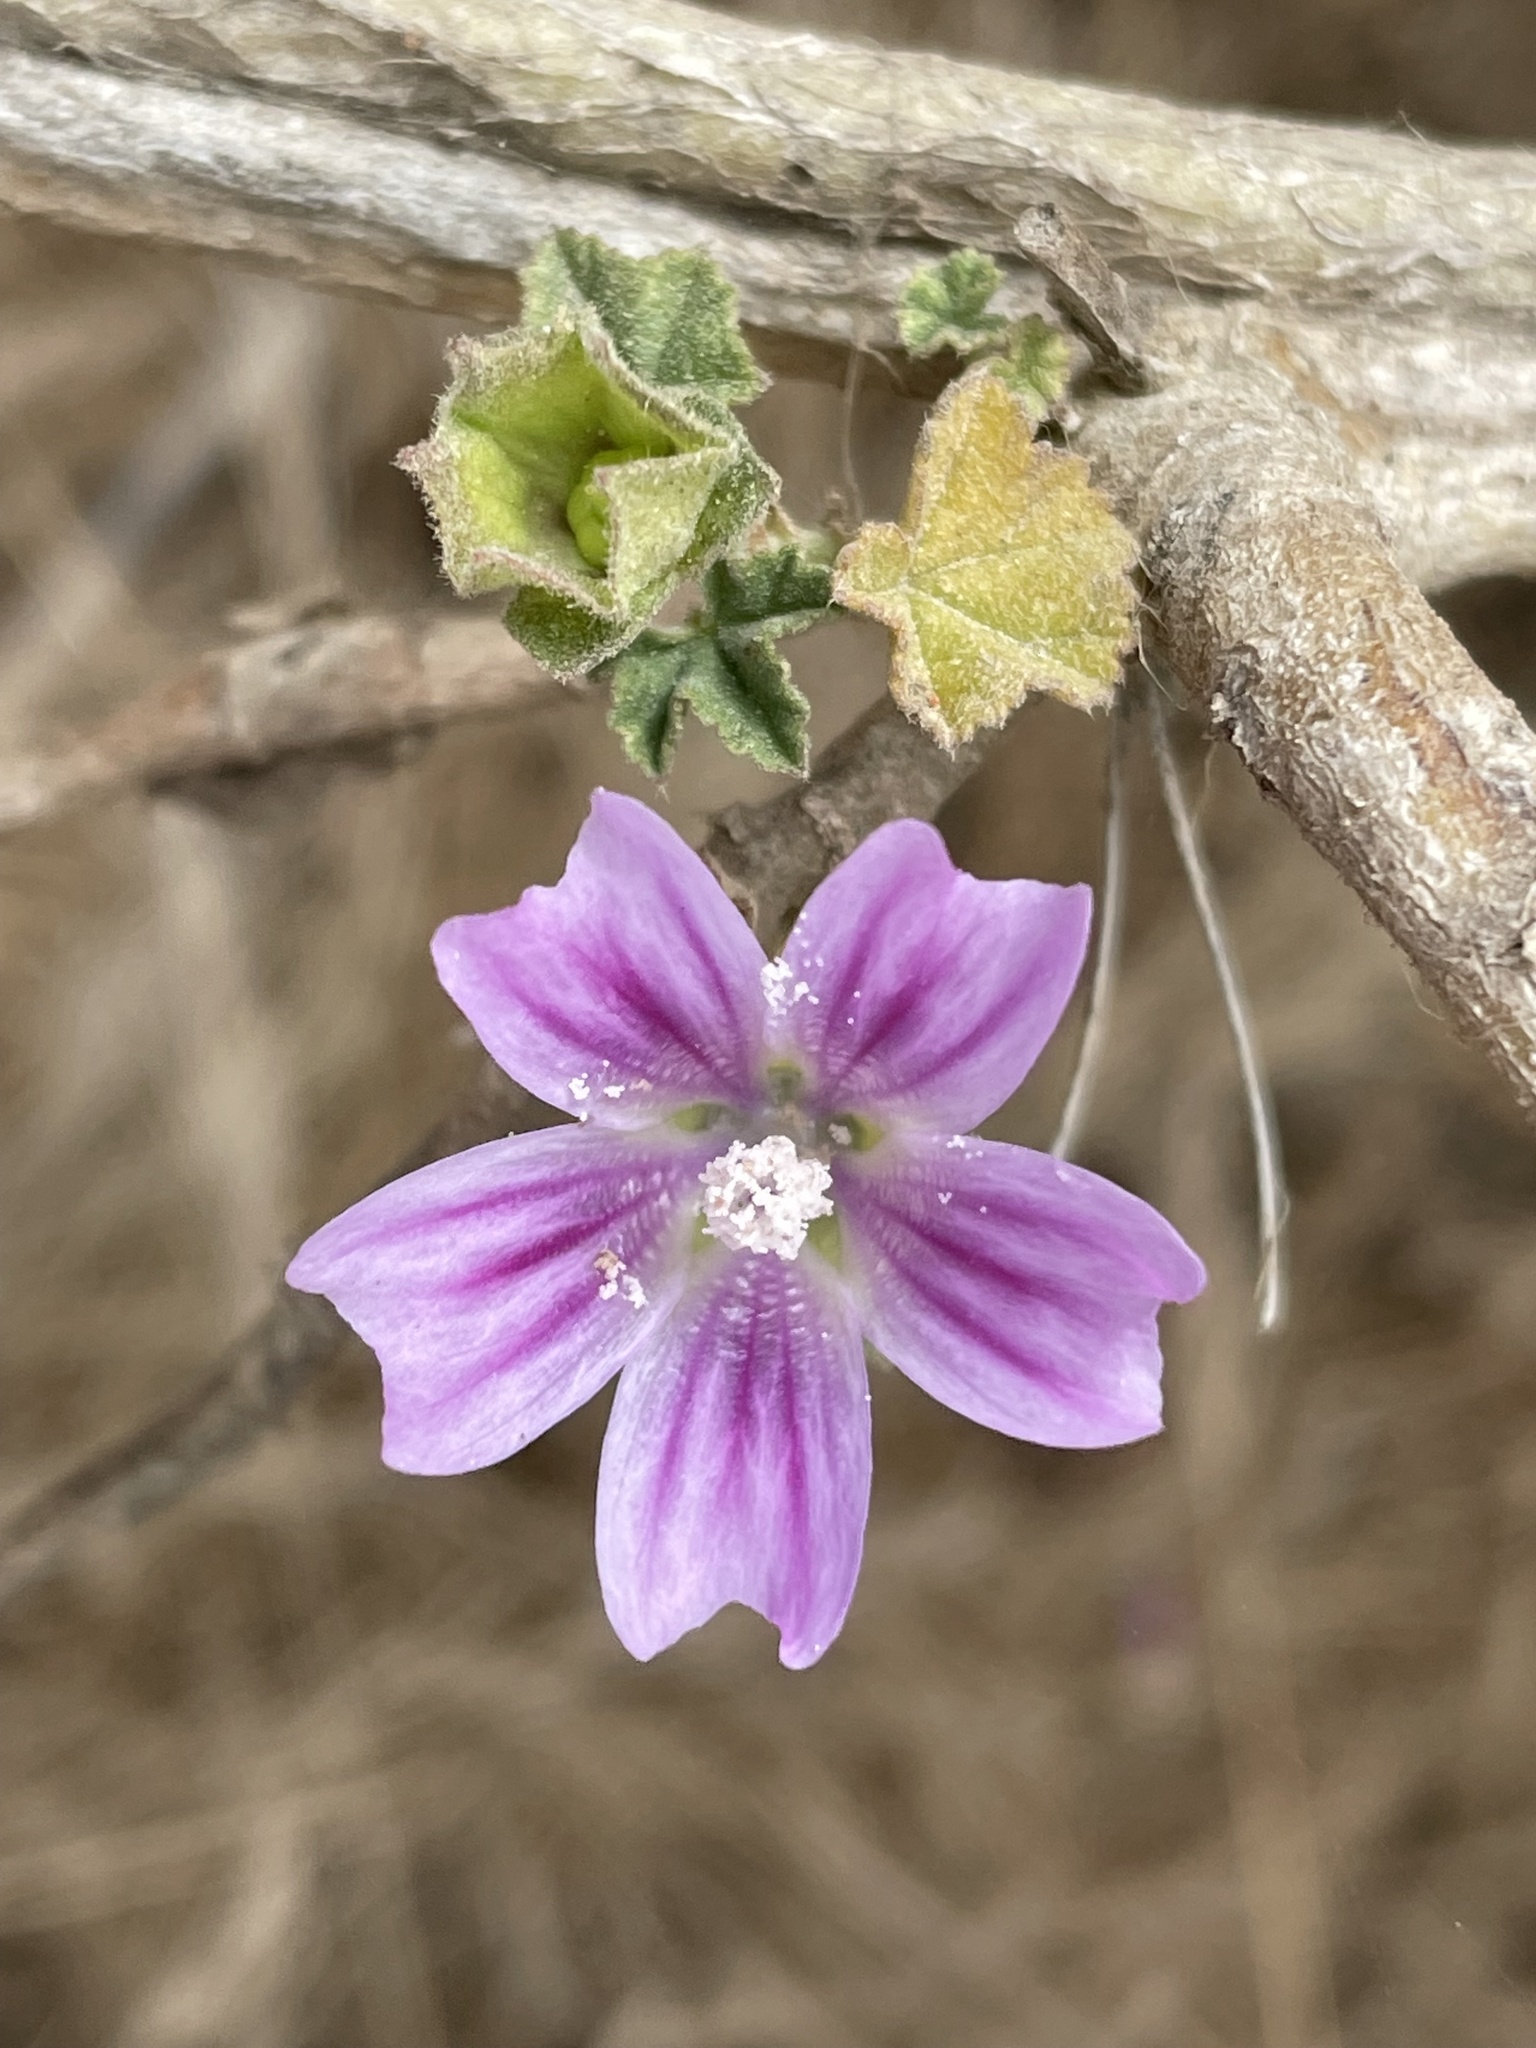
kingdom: Plantae
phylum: Tracheophyta
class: Magnoliopsida
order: Malvales
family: Malvaceae
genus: Malva
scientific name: Malva multiflora
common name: Cheeseweed
